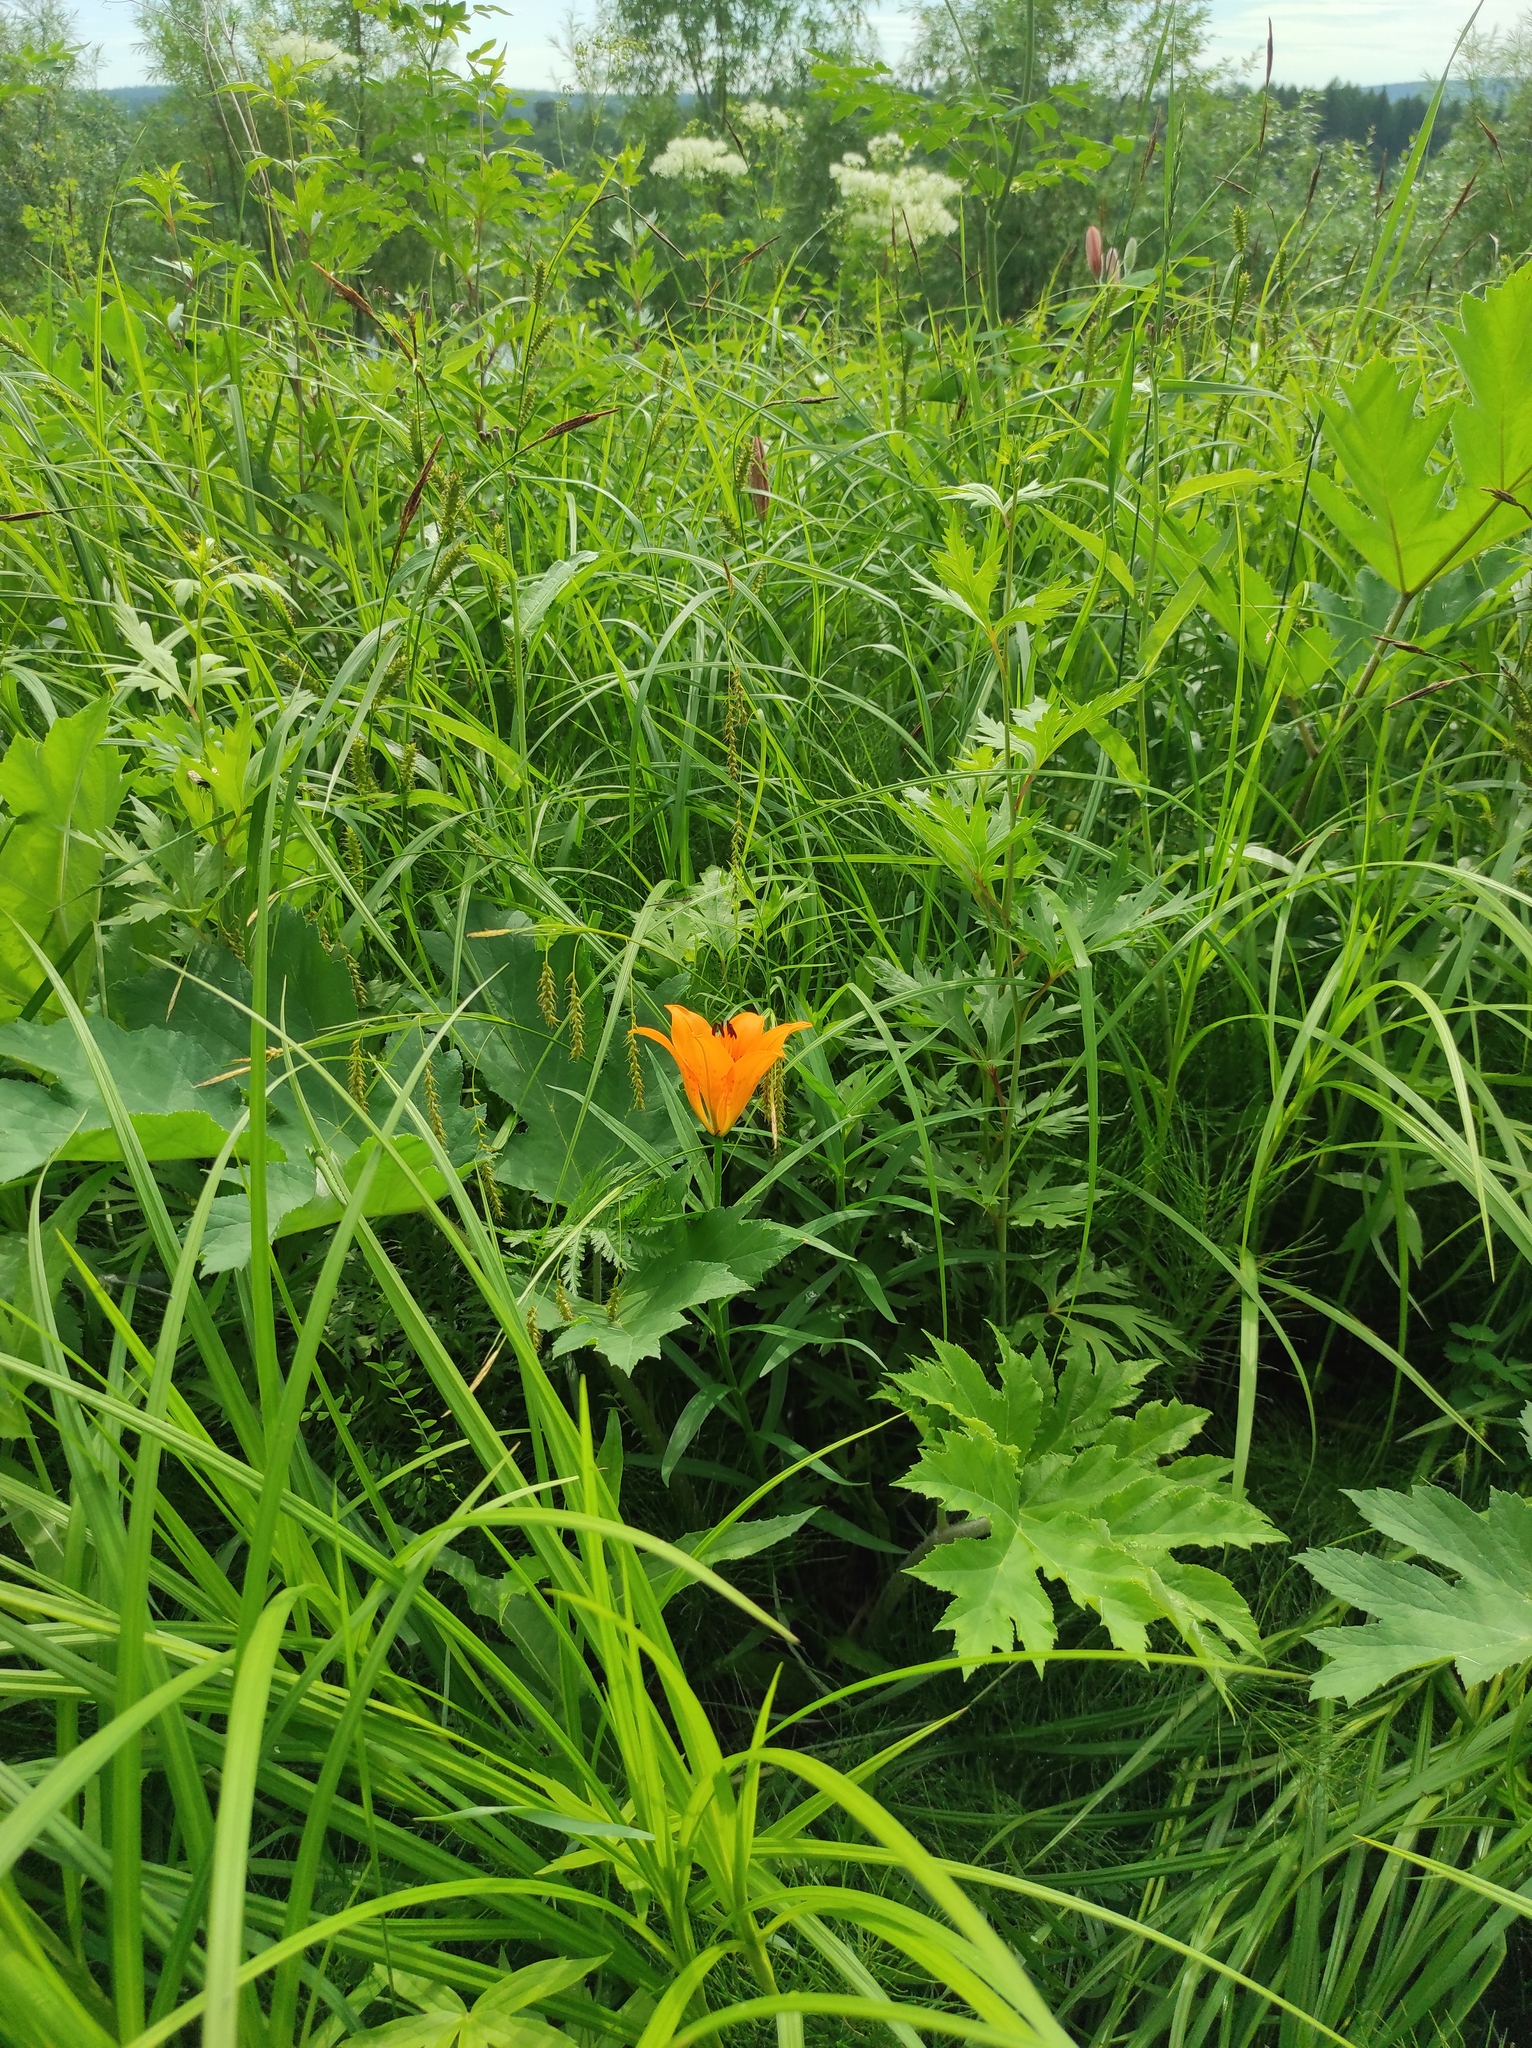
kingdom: Plantae
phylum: Tracheophyta
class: Liliopsida
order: Liliales
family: Liliaceae
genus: Lilium
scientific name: Lilium pensylvanicum
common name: Candlestick lily
